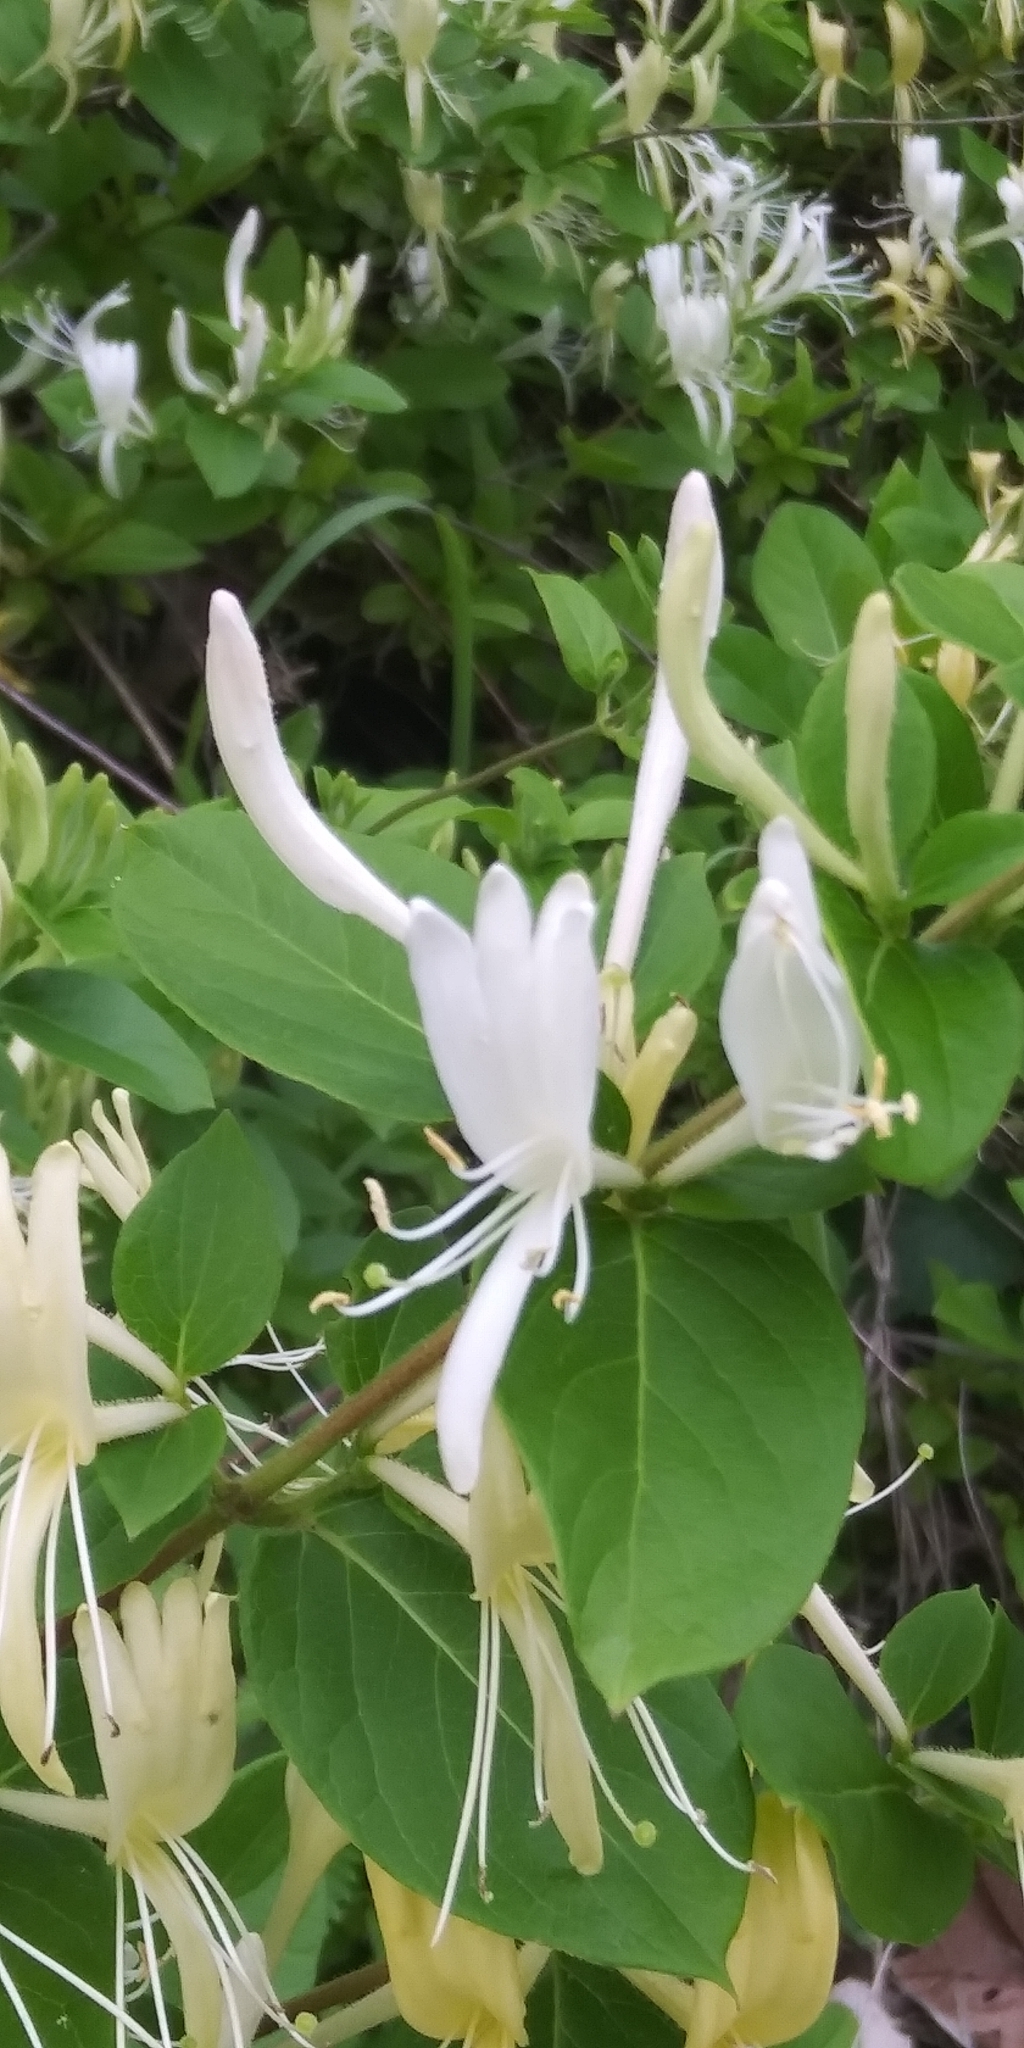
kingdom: Plantae
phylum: Tracheophyta
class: Magnoliopsida
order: Dipsacales
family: Caprifoliaceae
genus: Lonicera
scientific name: Lonicera japonica
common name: Japanese honeysuckle
